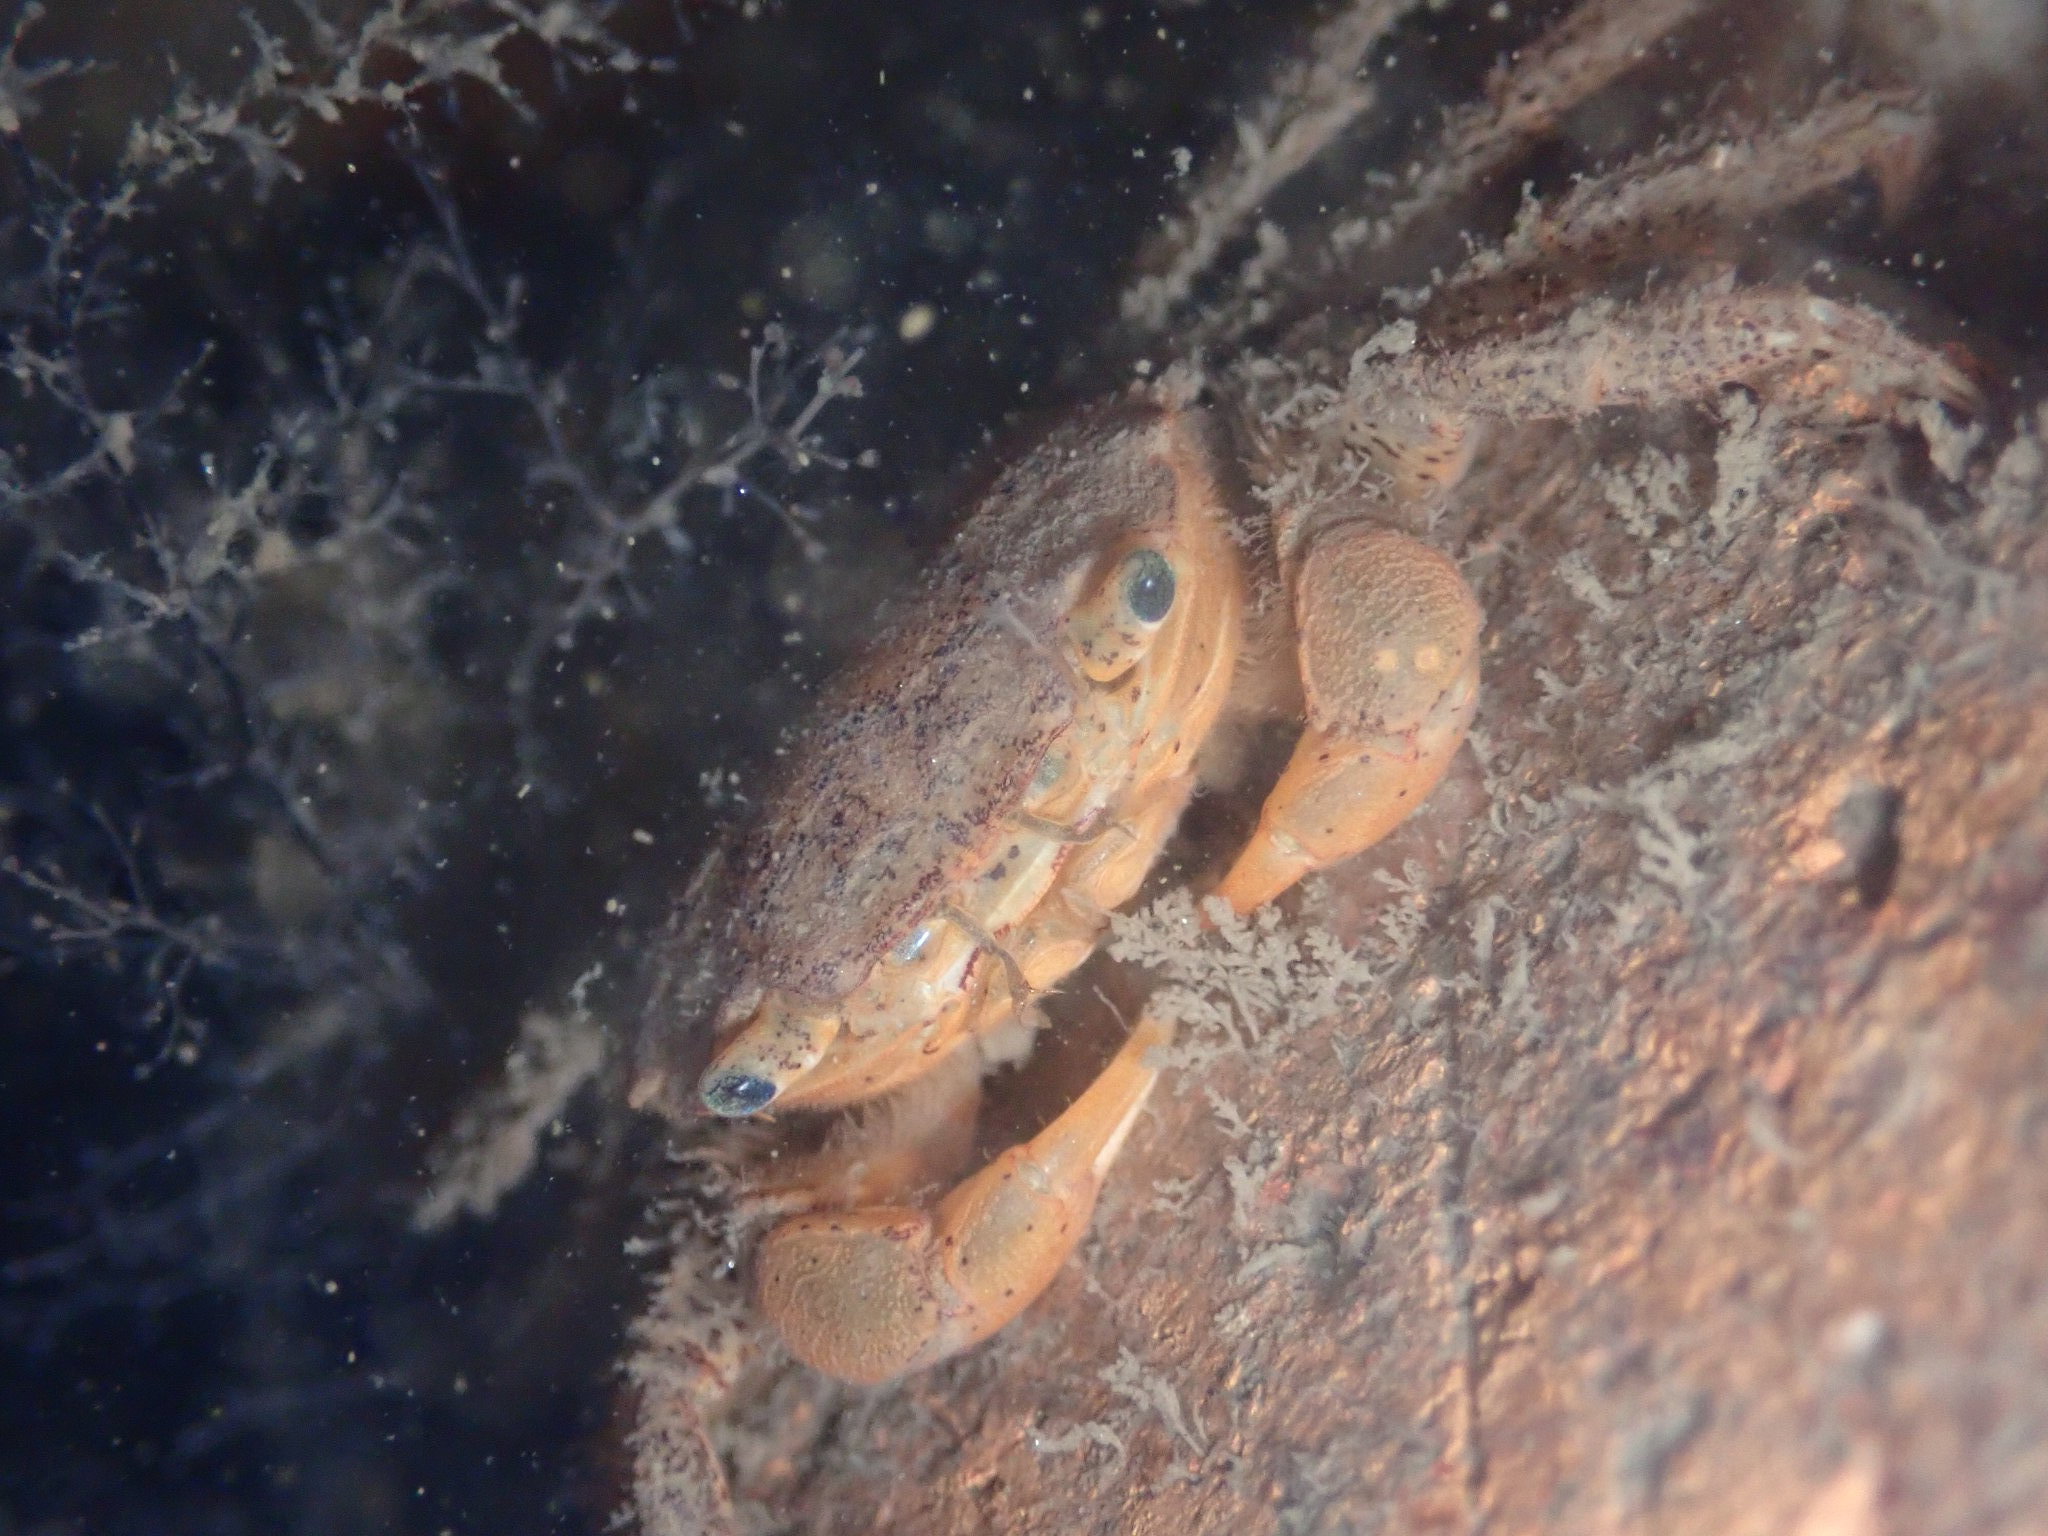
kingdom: Animalia
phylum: Arthropoda
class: Malacostraca
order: Decapoda
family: Varunidae
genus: Hemigrapsus
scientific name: Hemigrapsus oregonensis
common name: Yellow shore crab
